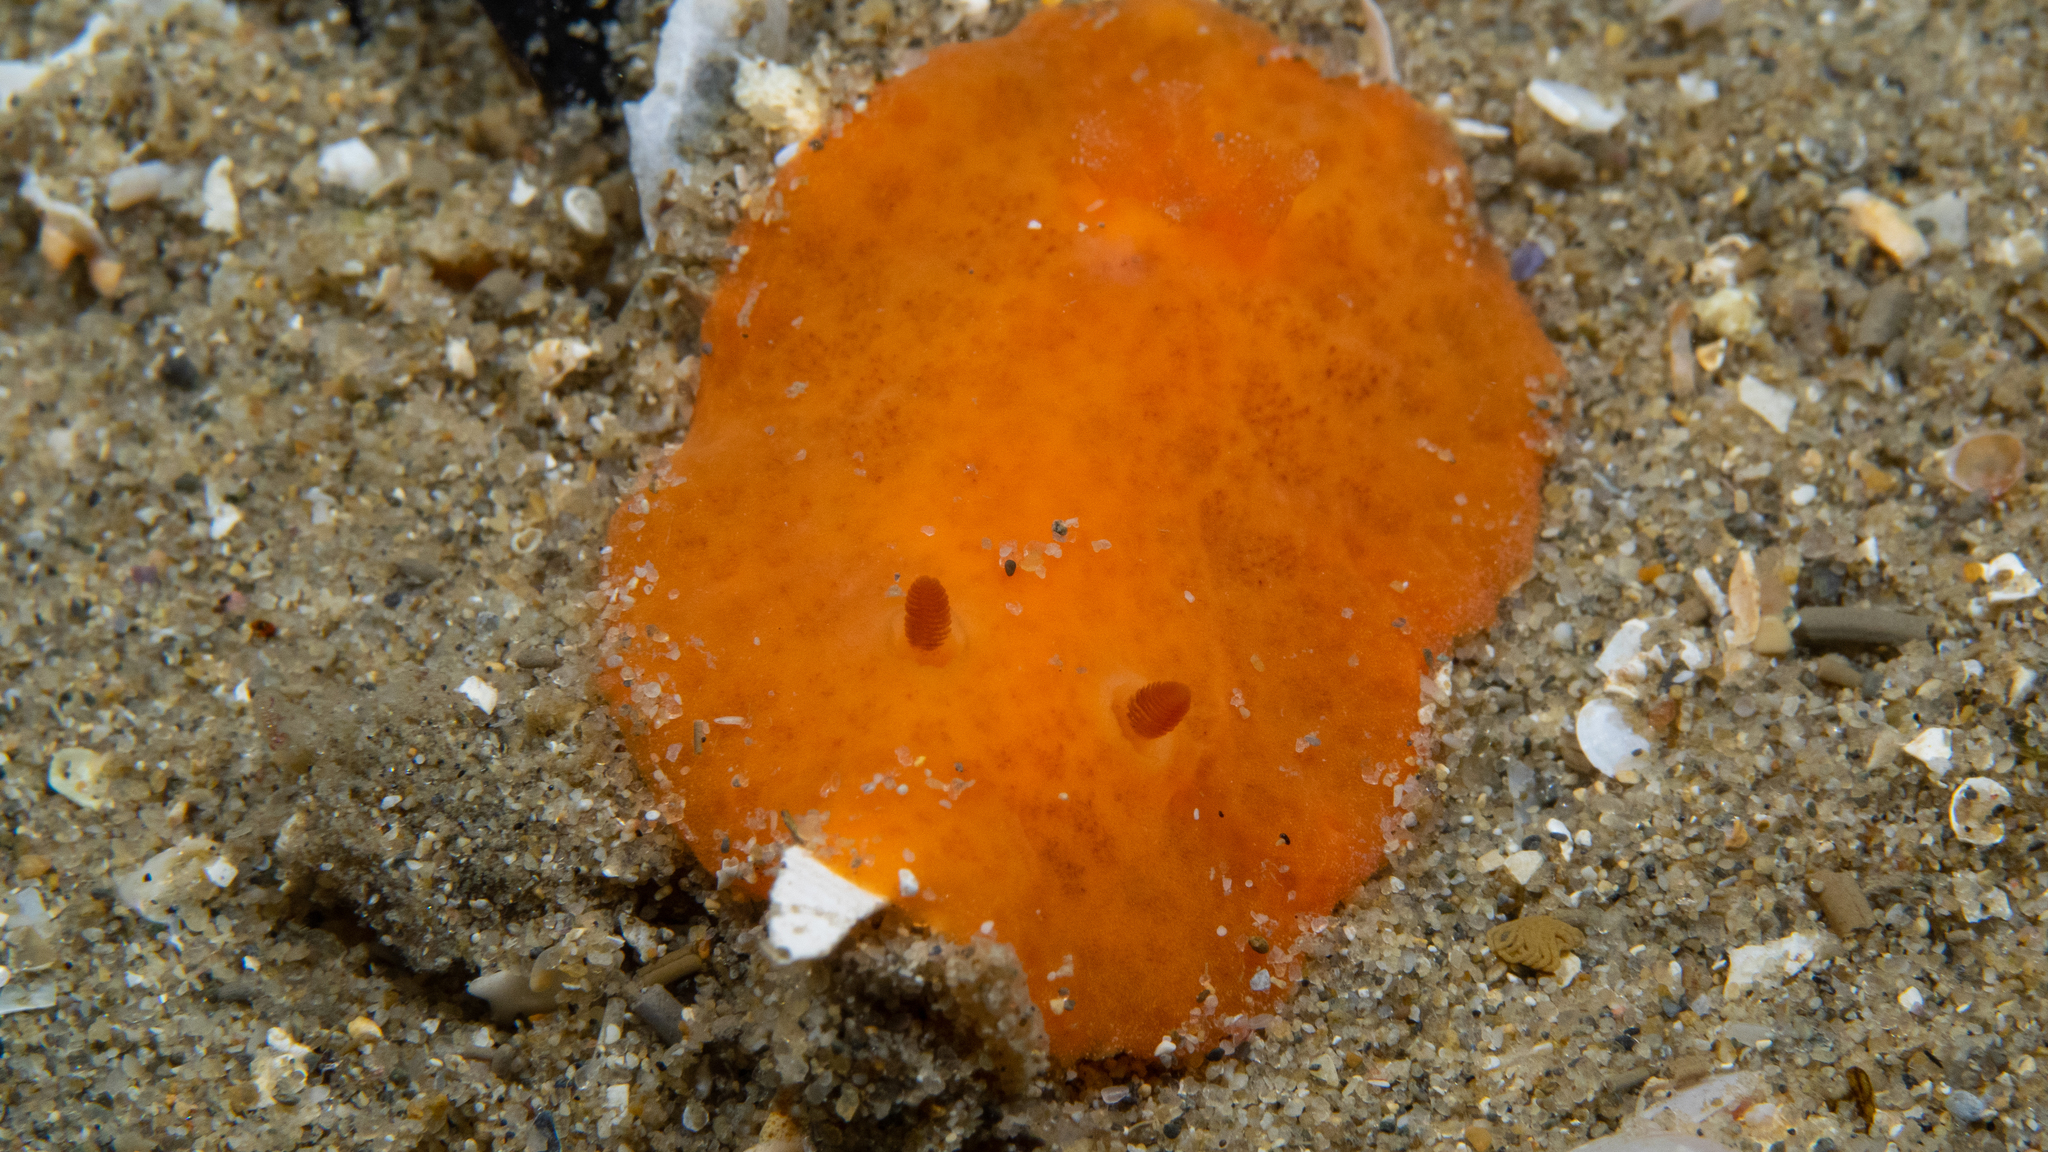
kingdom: Animalia
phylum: Mollusca
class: Gastropoda
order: Nudibranchia
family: Discodorididae
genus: Discodoris
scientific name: Discodoris paroa
